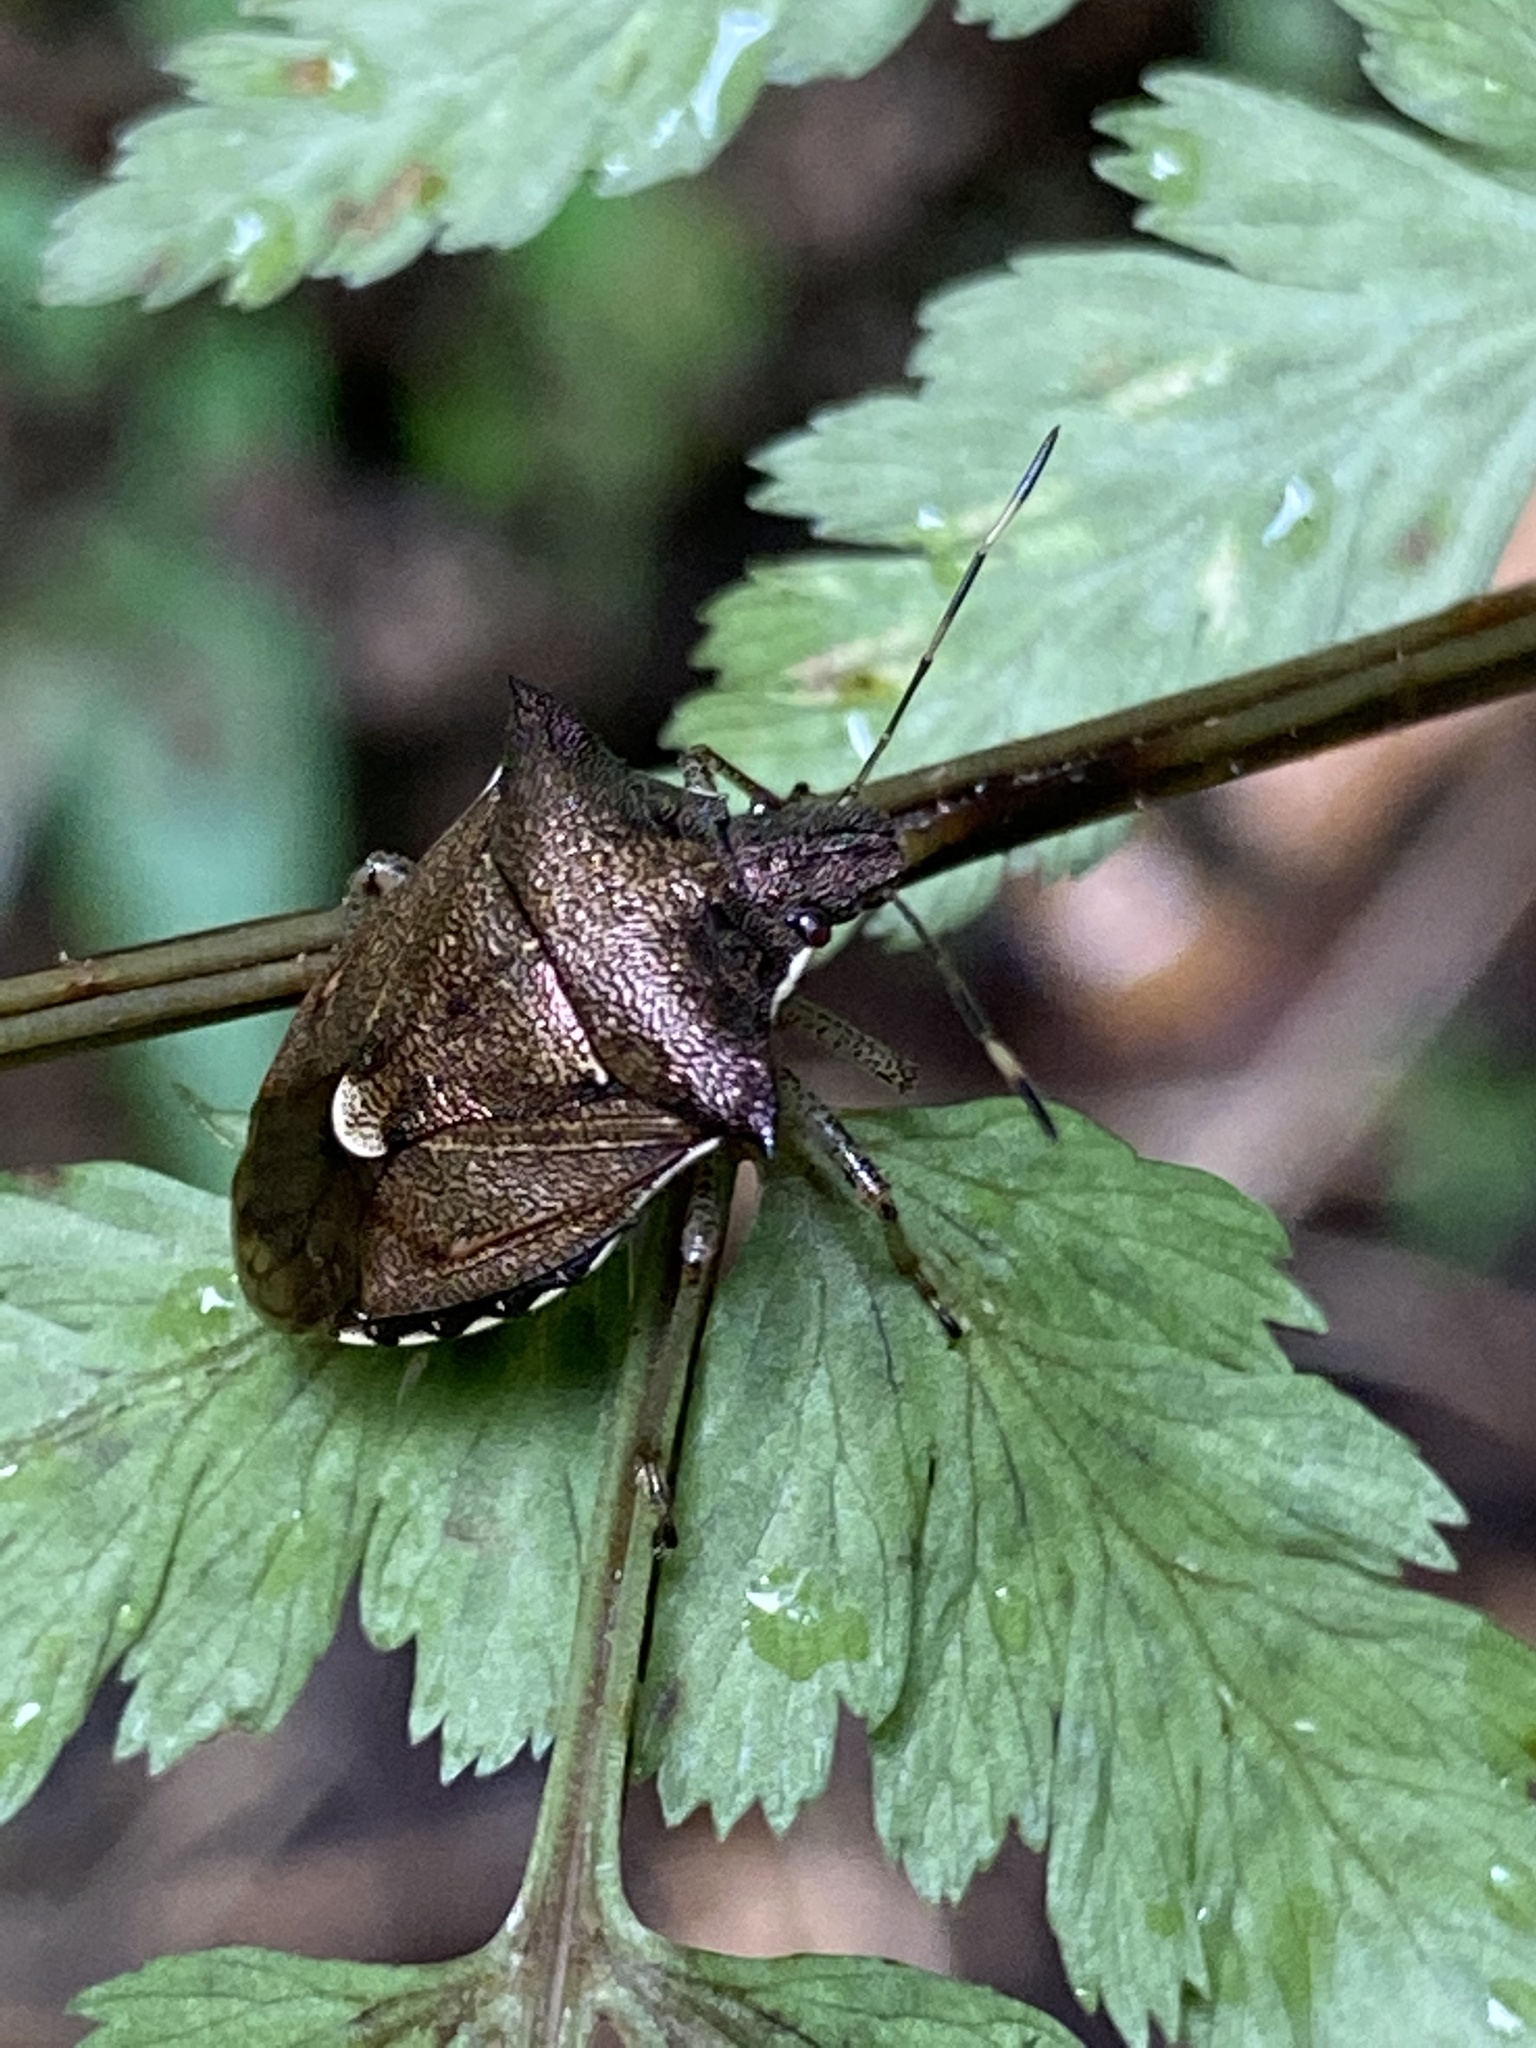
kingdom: Animalia
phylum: Arthropoda
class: Insecta
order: Hemiptera
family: Pentatomidae
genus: Carbula
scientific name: Carbula
